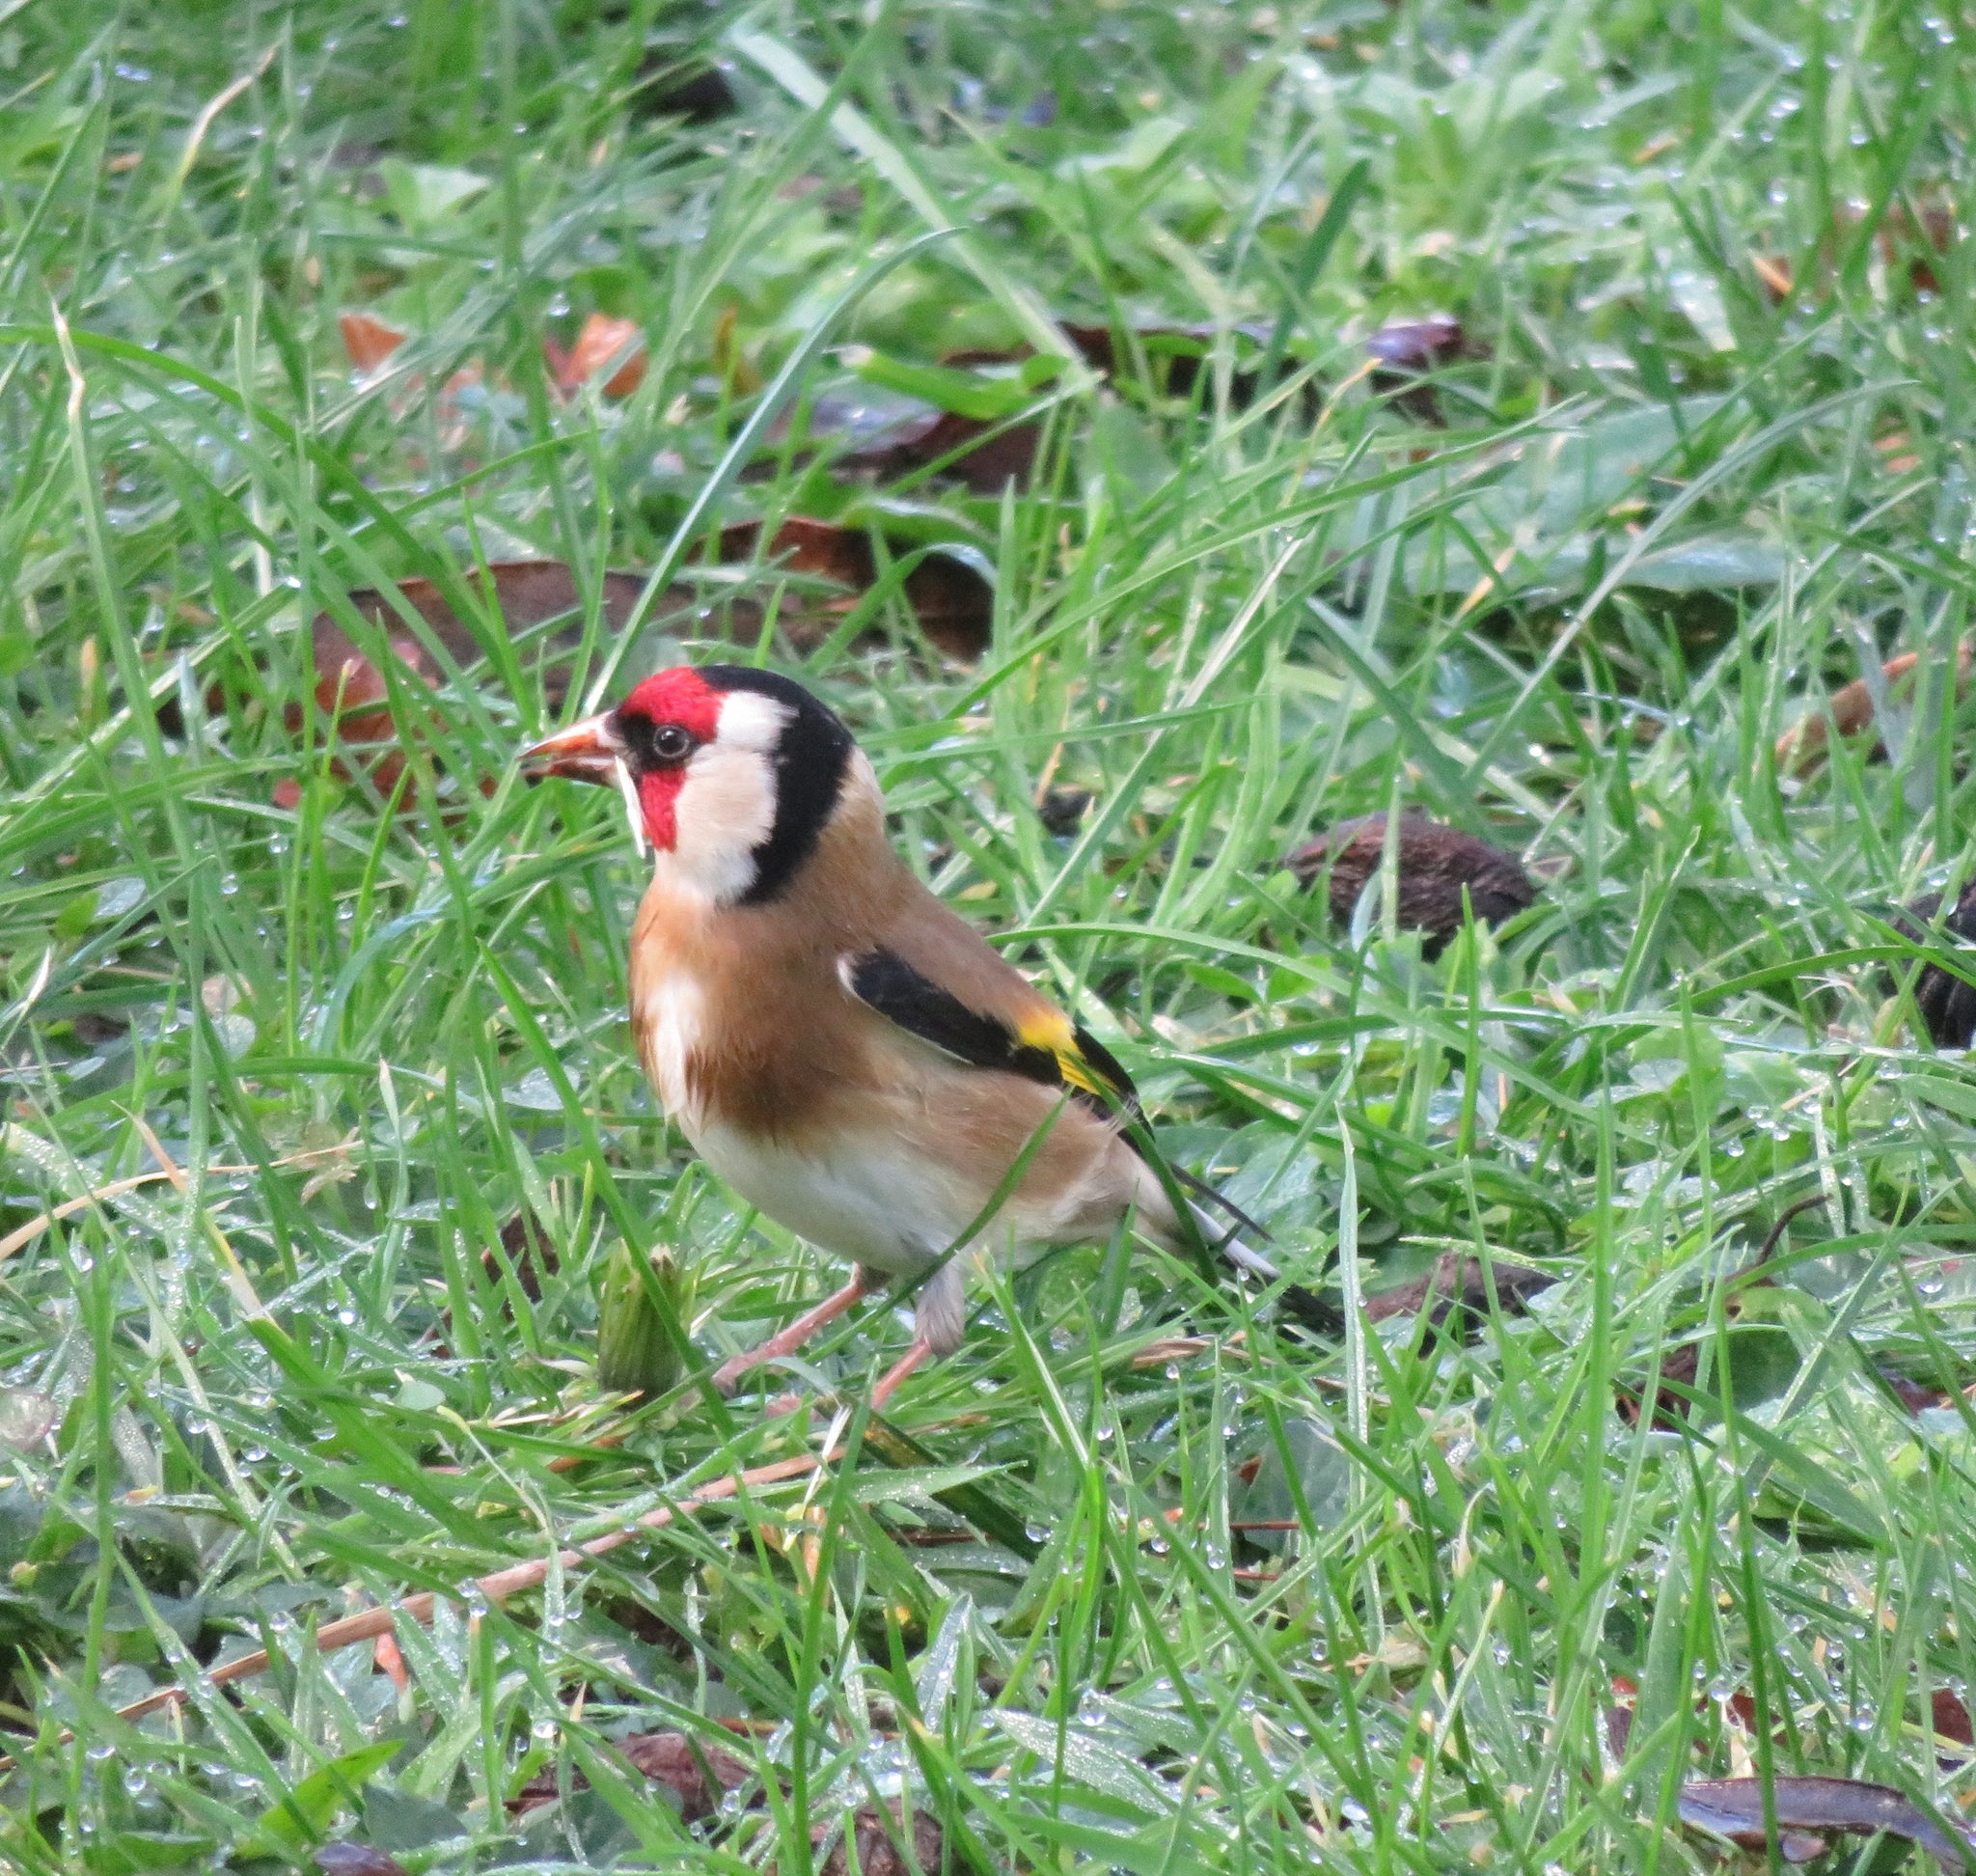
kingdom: Animalia
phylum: Chordata
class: Aves
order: Passeriformes
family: Fringillidae
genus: Carduelis
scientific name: Carduelis carduelis
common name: European goldfinch
